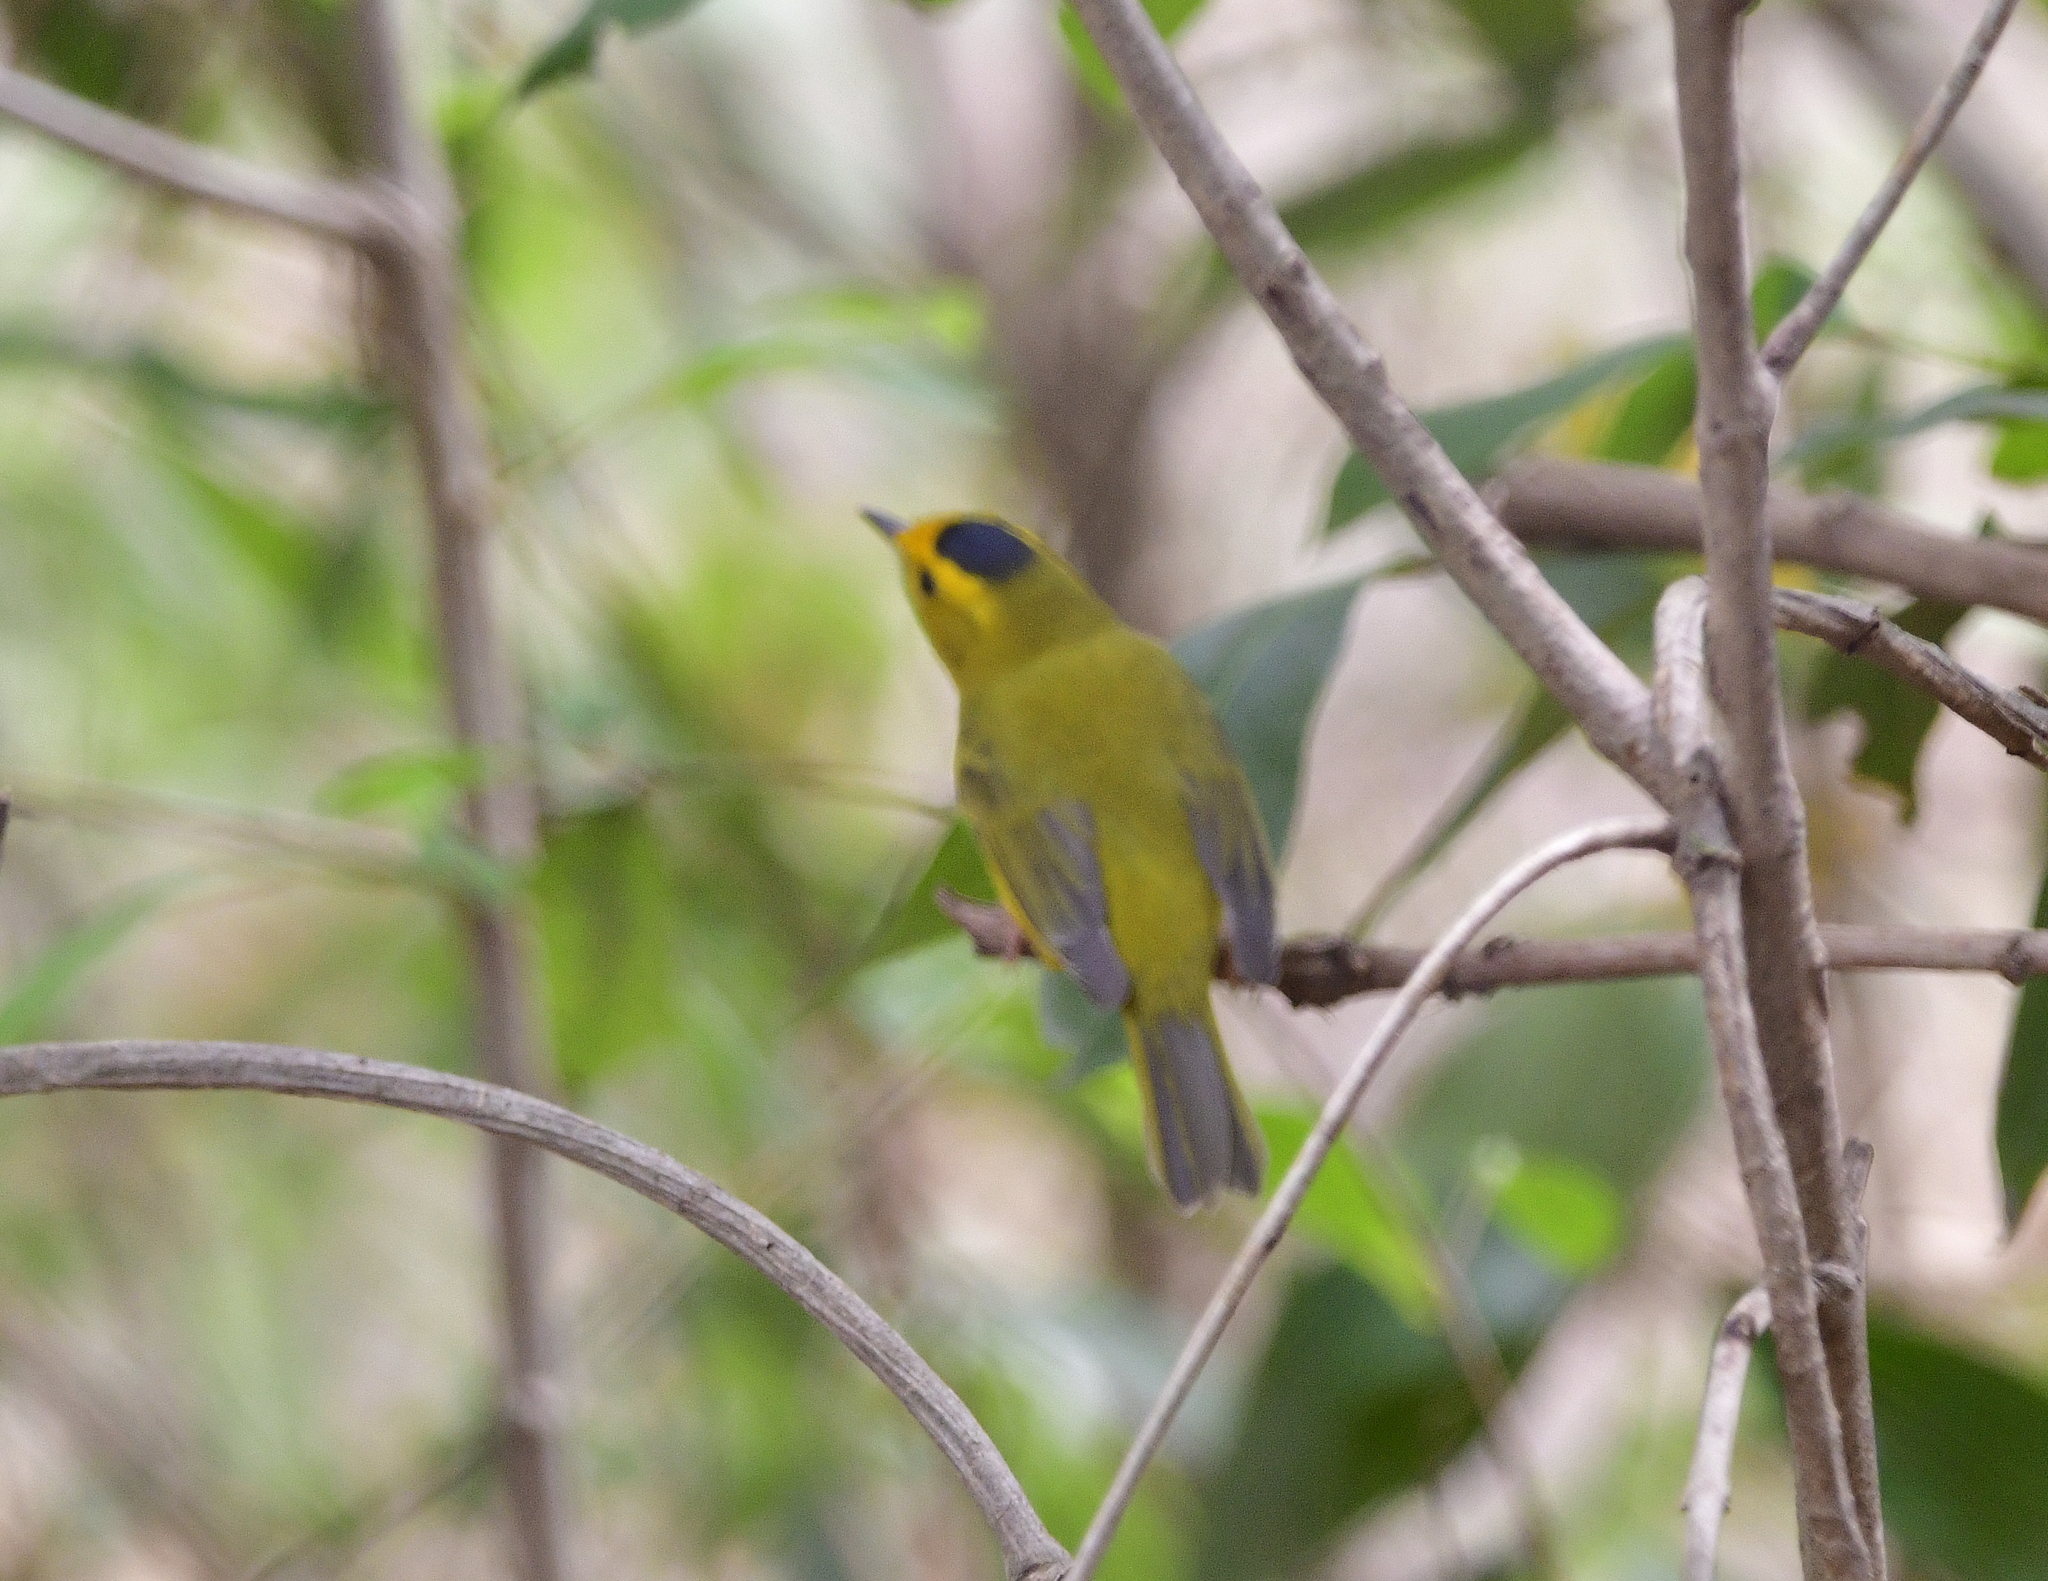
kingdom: Animalia
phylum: Chordata
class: Aves
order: Passeriformes
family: Parulidae
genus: Cardellina
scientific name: Cardellina pusilla
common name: Wilson's warbler
